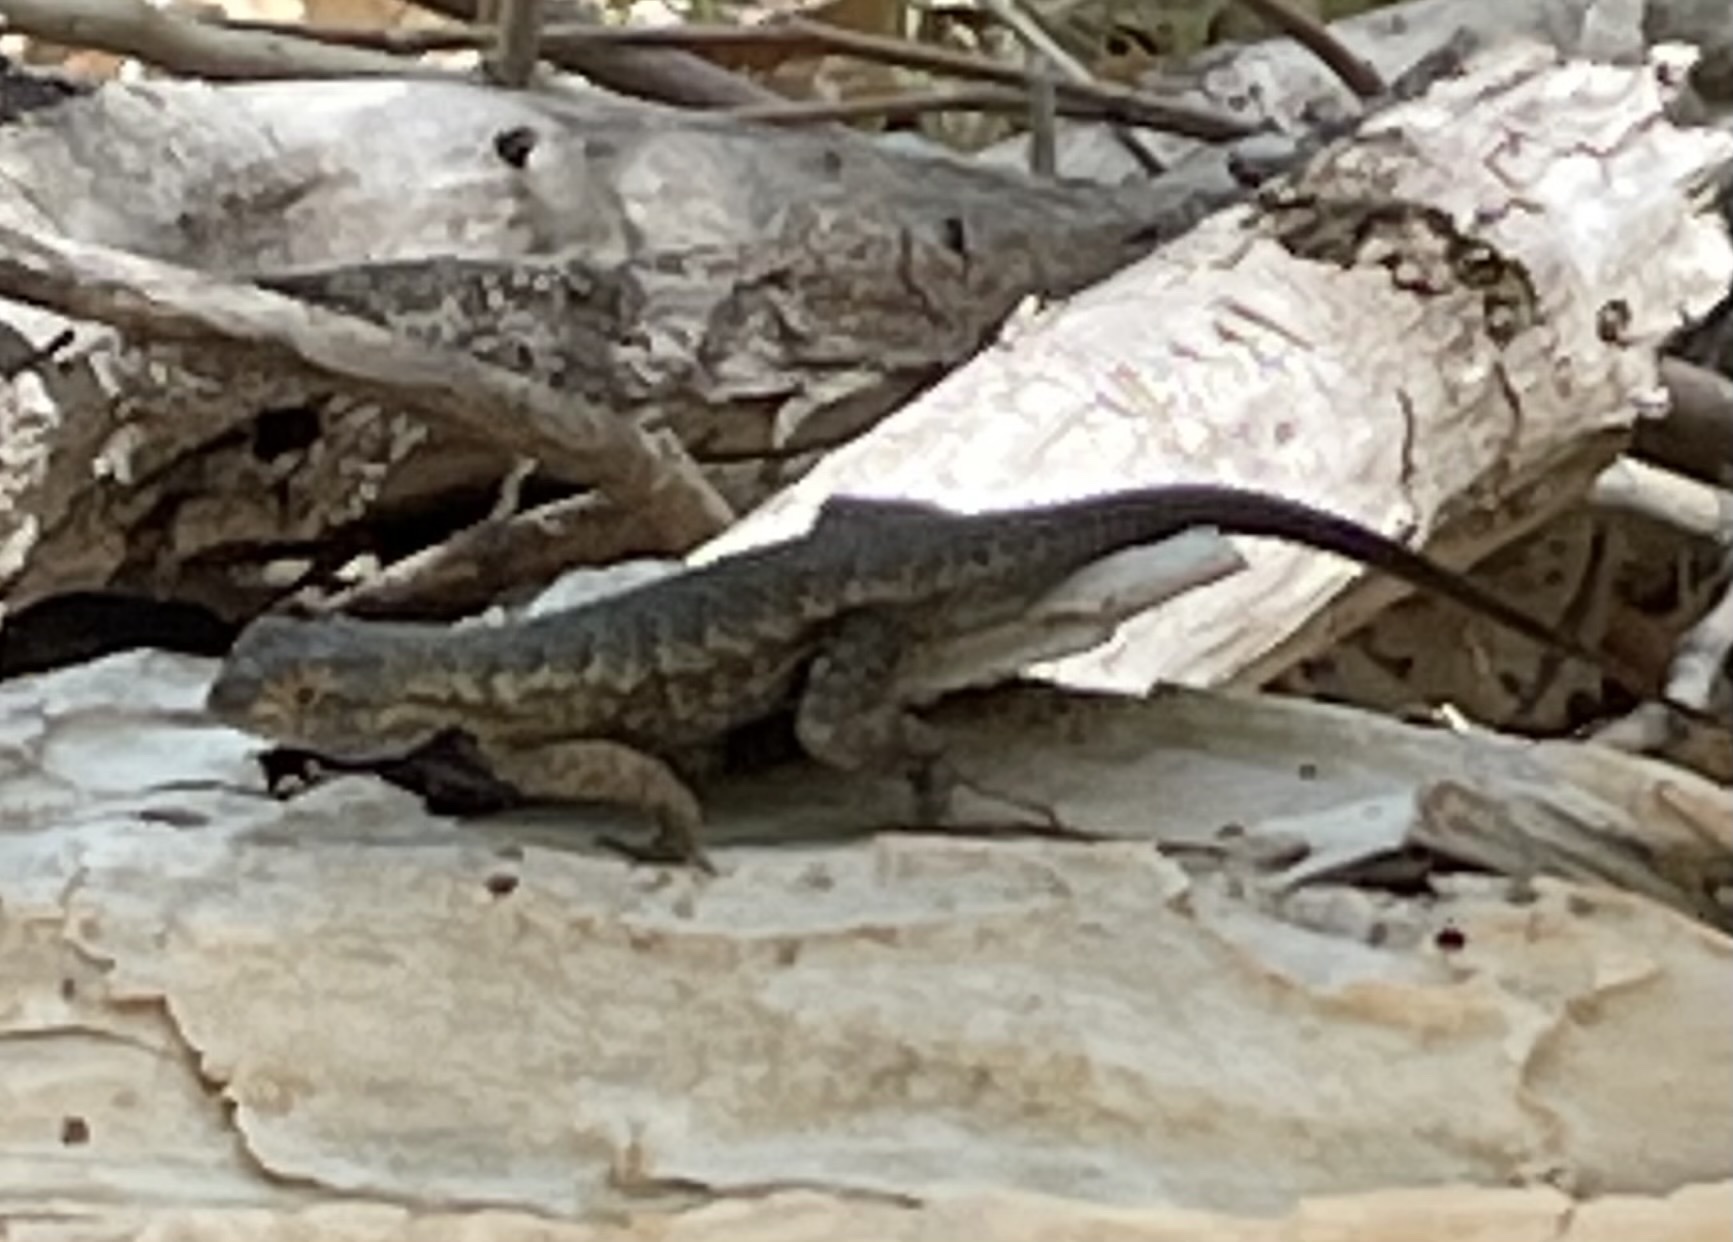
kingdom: Animalia
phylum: Chordata
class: Squamata
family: Phrynosomatidae
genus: Sceloporus
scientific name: Sceloporus occidentalis
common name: Western fence lizard
